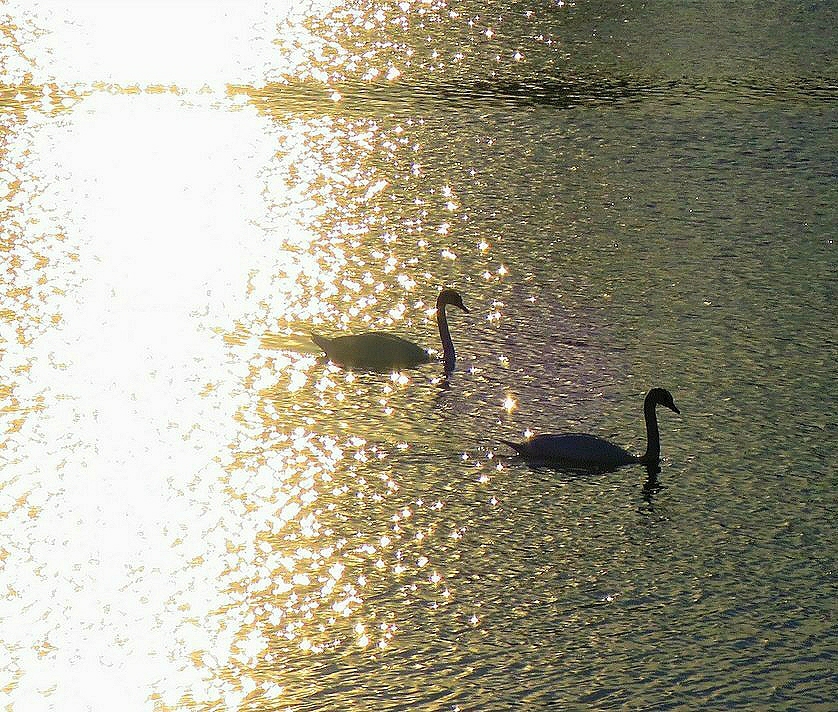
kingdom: Animalia
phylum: Chordata
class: Aves
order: Anseriformes
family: Anatidae
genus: Cygnus
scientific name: Cygnus olor
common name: Mute swan
